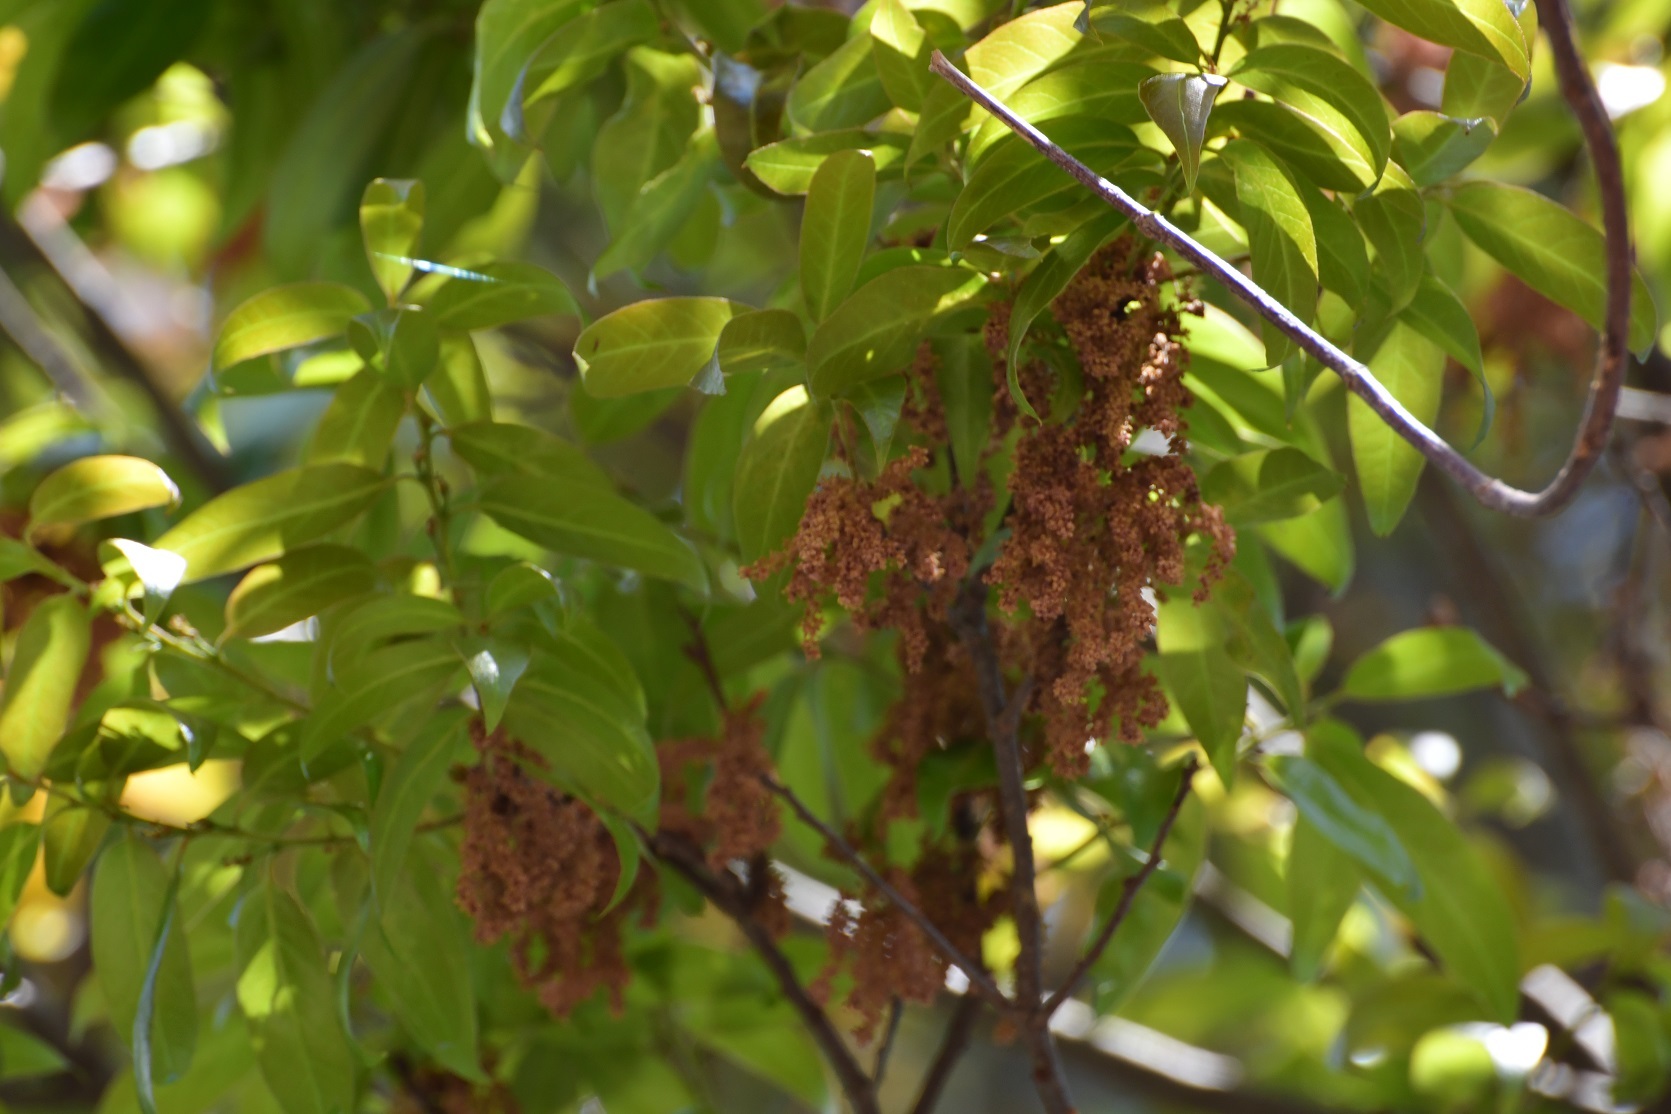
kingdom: Plantae
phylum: Tracheophyta
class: Magnoliopsida
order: Fagales
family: Fagaceae
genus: Quercus
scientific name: Quercus acatenangensis
